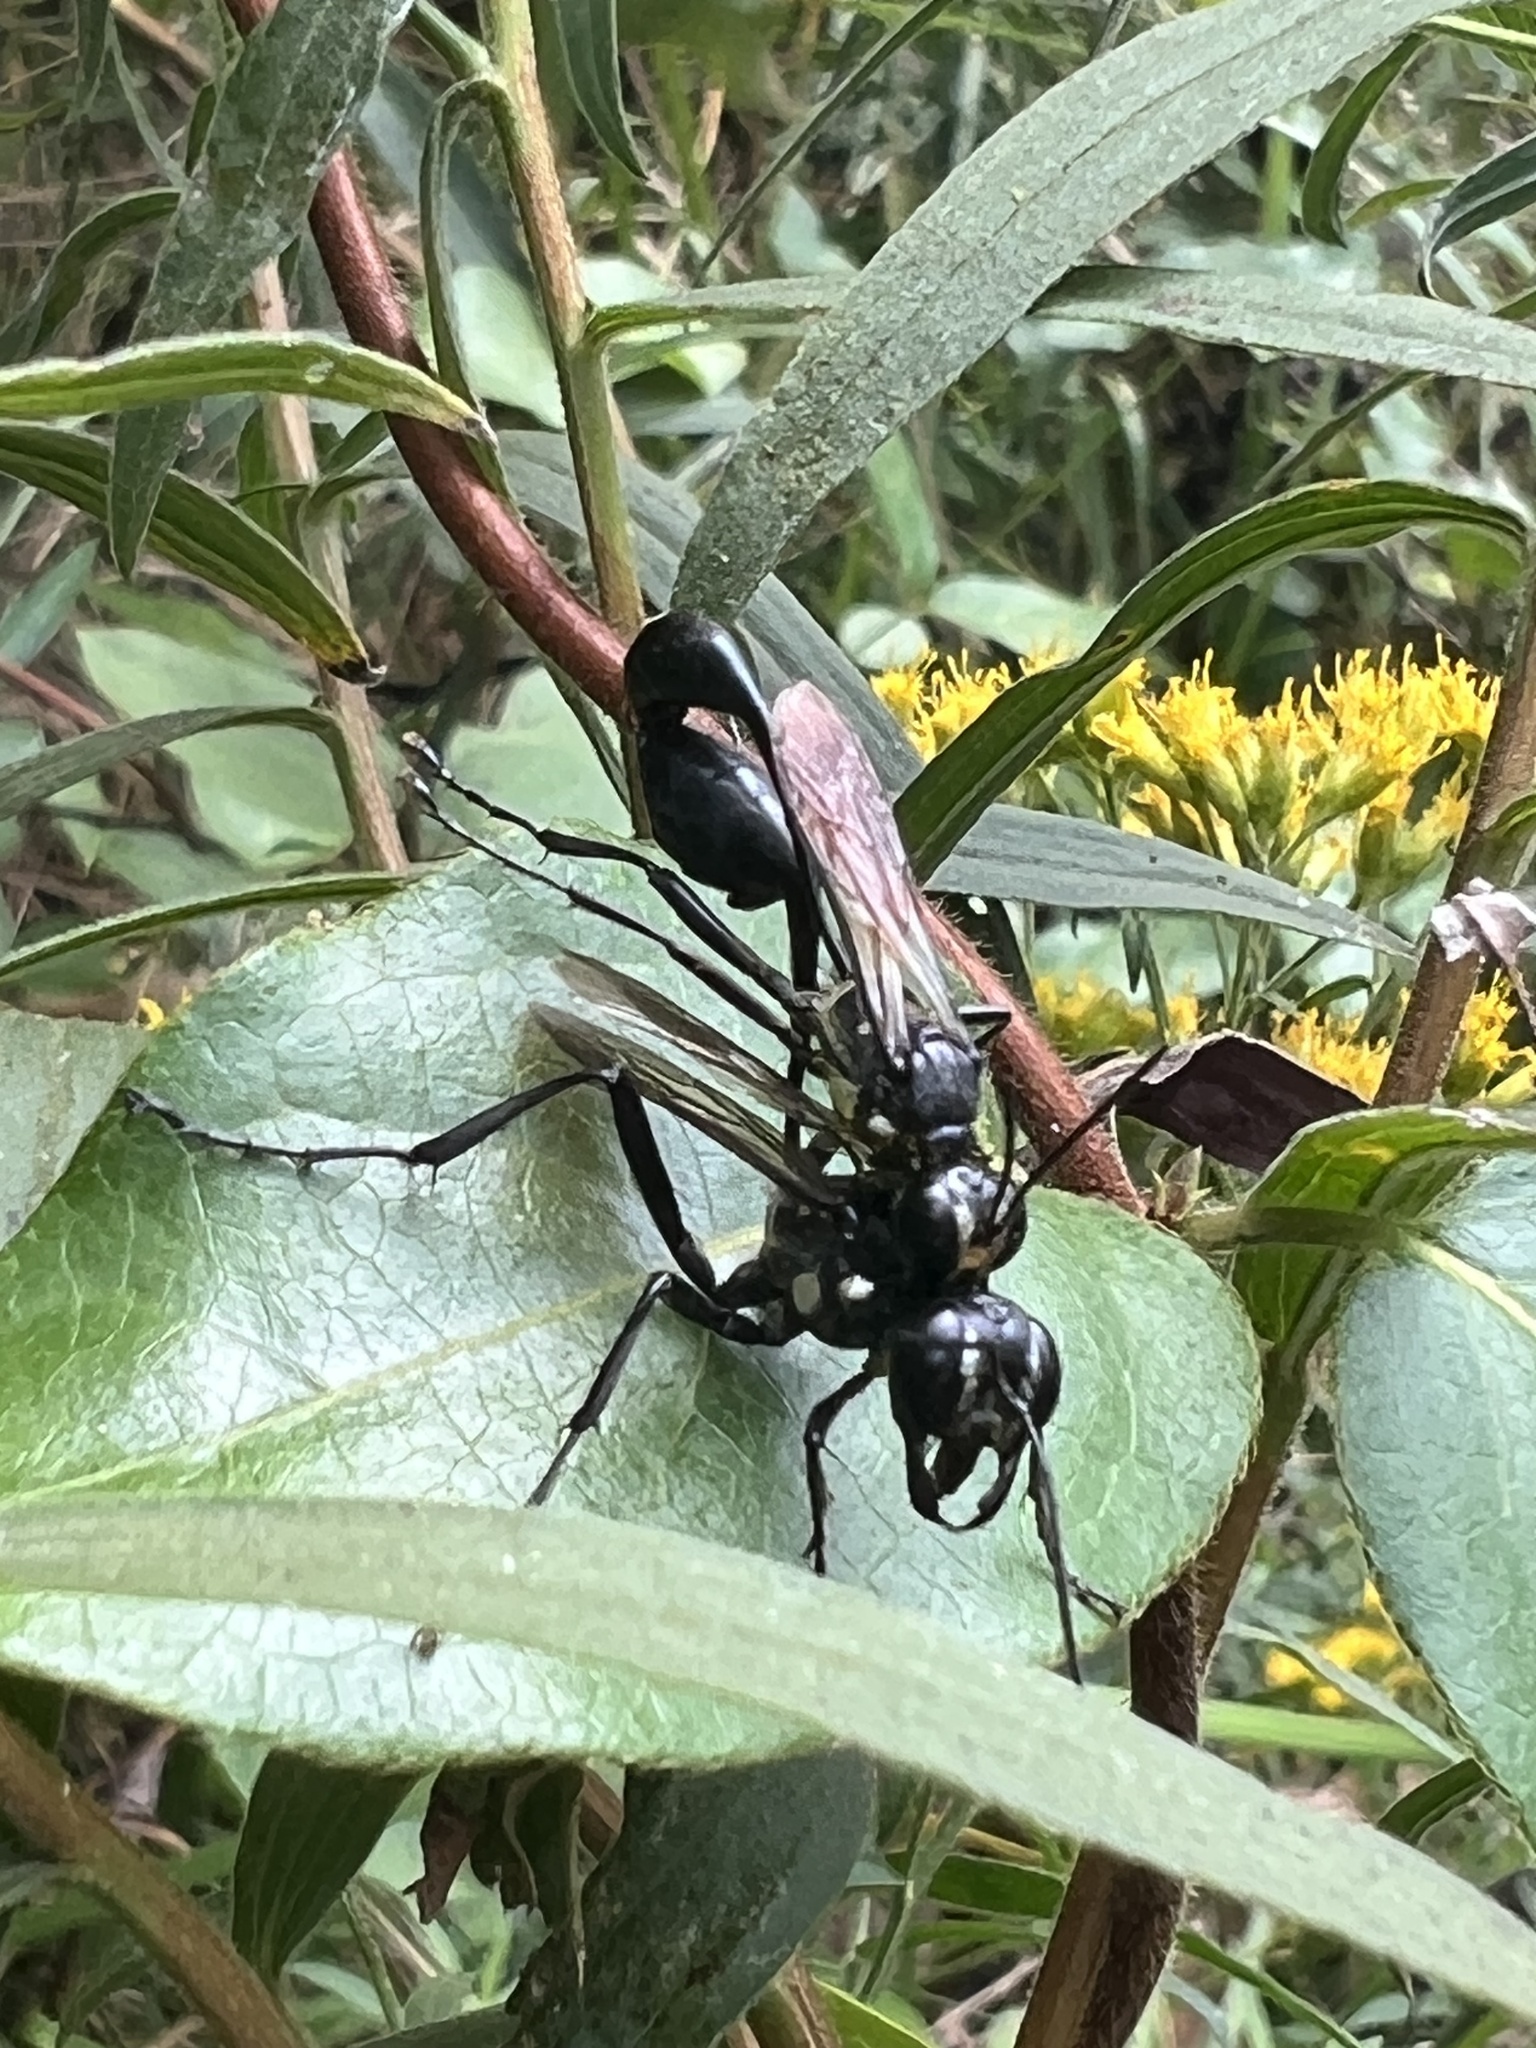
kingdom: Animalia
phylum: Arthropoda
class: Insecta
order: Hymenoptera
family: Sphecidae
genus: Eremnophila
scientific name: Eremnophila aureonotata
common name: Gold-marked thread-waisted wasp
